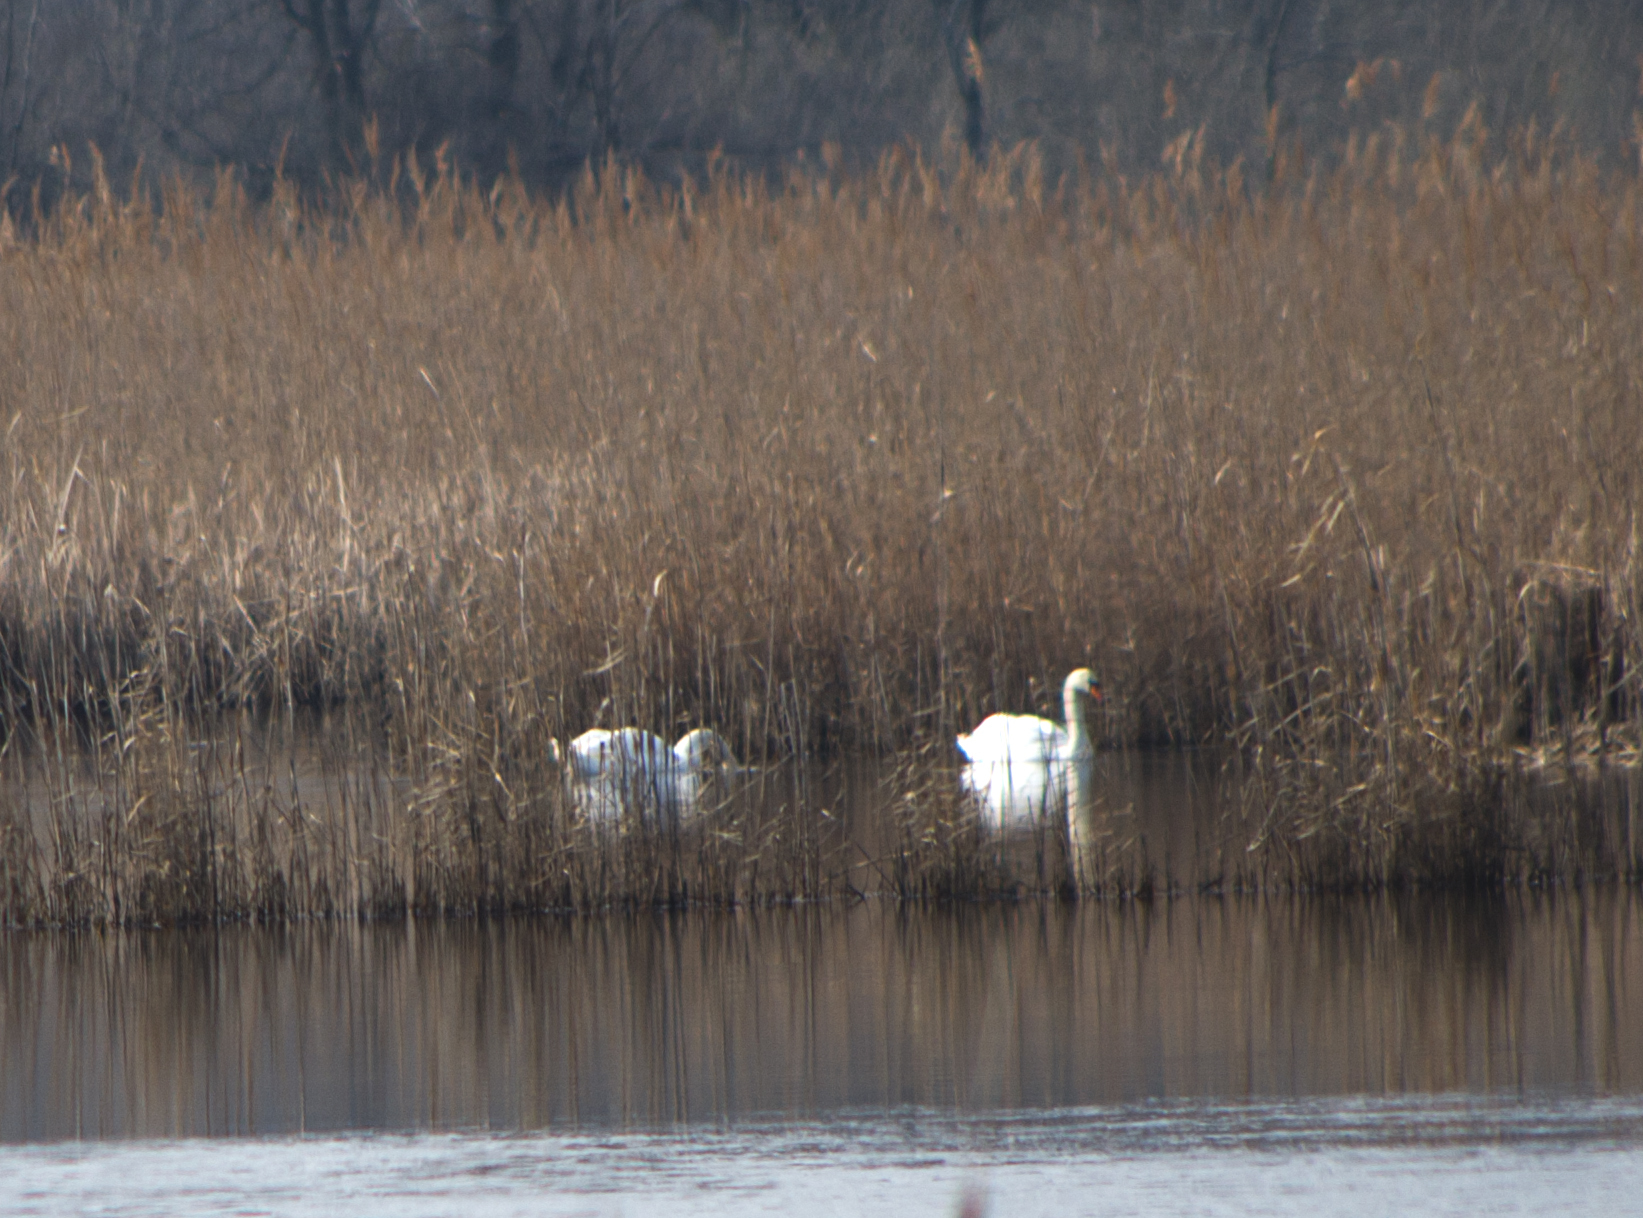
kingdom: Animalia
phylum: Chordata
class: Aves
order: Anseriformes
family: Anatidae
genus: Cygnus
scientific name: Cygnus olor
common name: Mute swan
